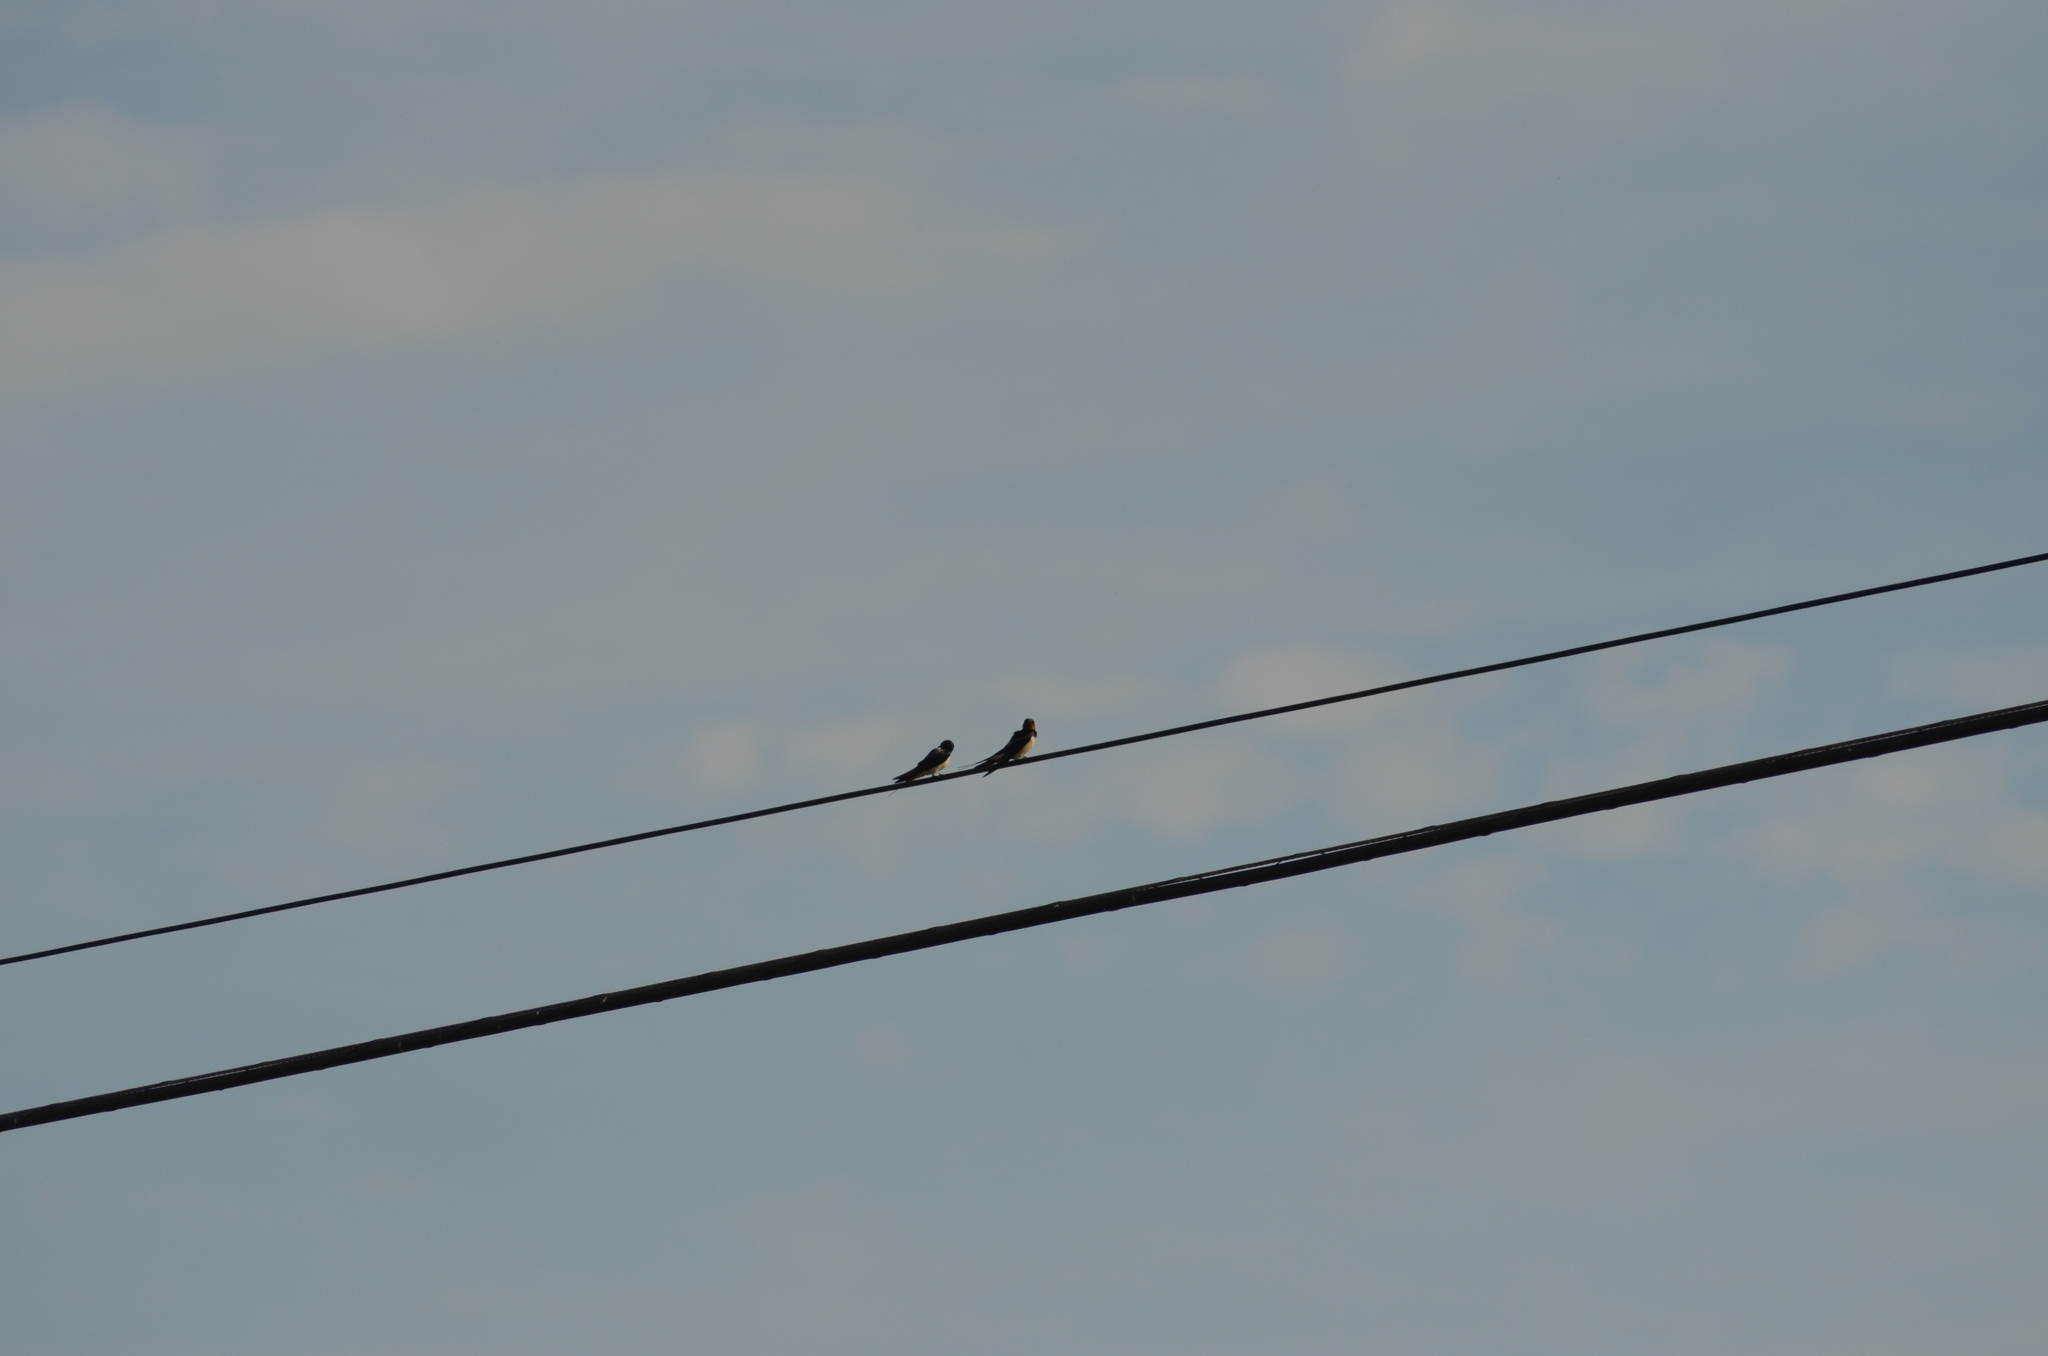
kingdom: Animalia
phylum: Chordata
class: Aves
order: Passeriformes
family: Hirundinidae
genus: Hirundo
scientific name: Hirundo rustica
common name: Barn swallow
